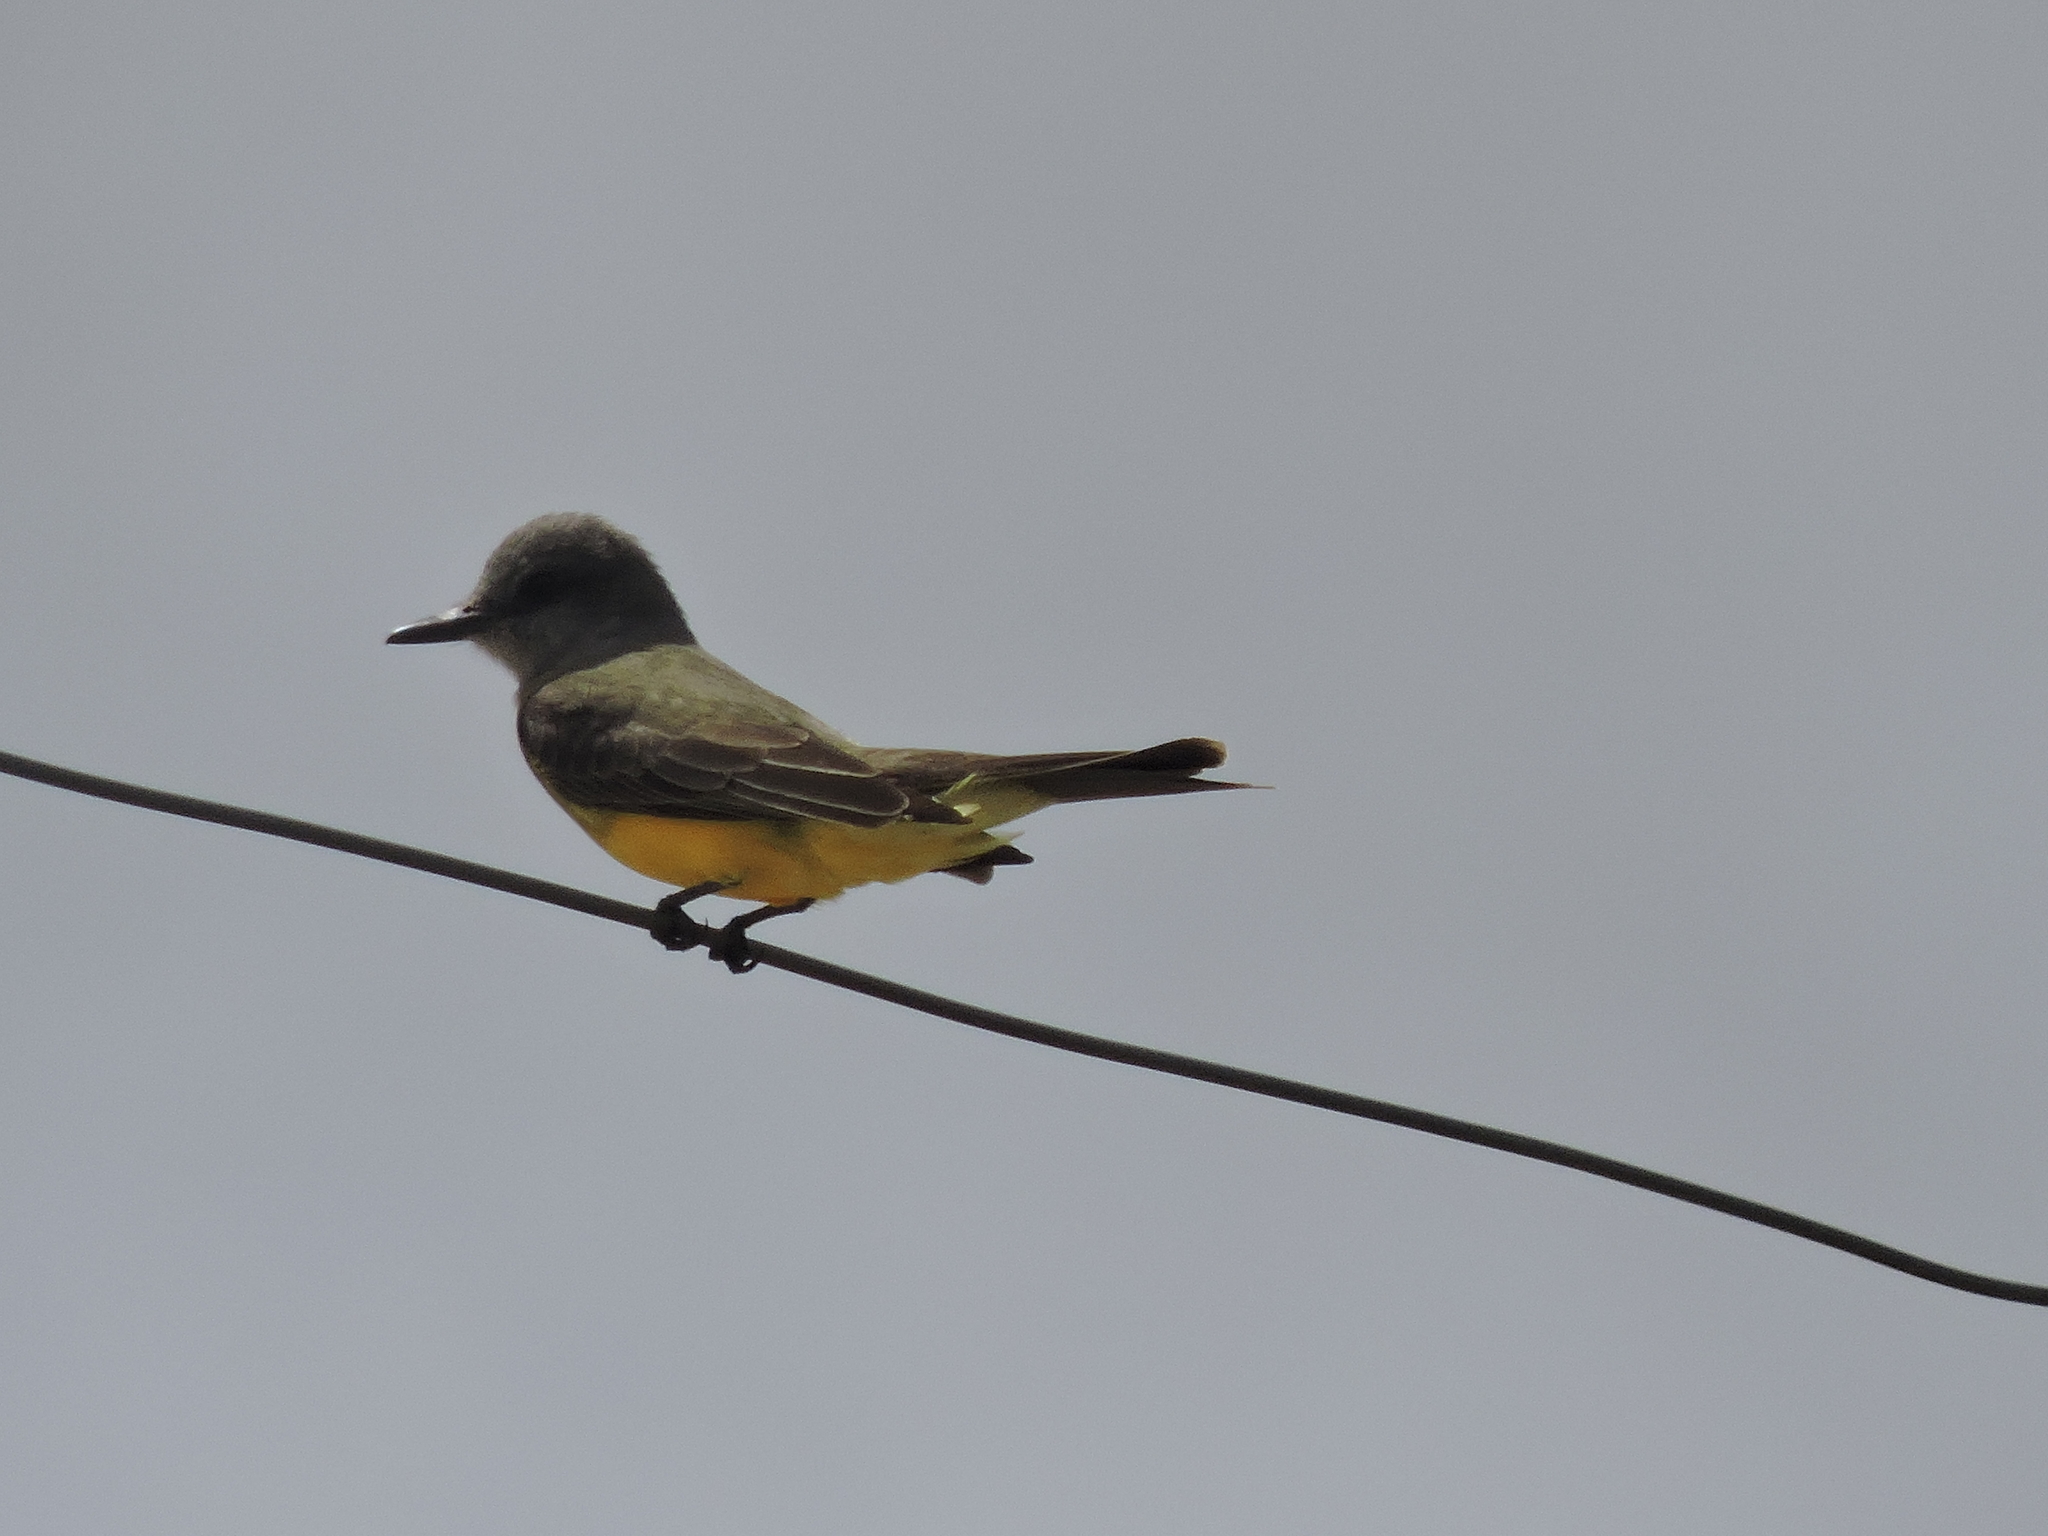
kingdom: Animalia
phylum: Chordata
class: Aves
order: Passeriformes
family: Tyrannidae
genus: Tyrannus
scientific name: Tyrannus melancholicus
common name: Tropical kingbird
